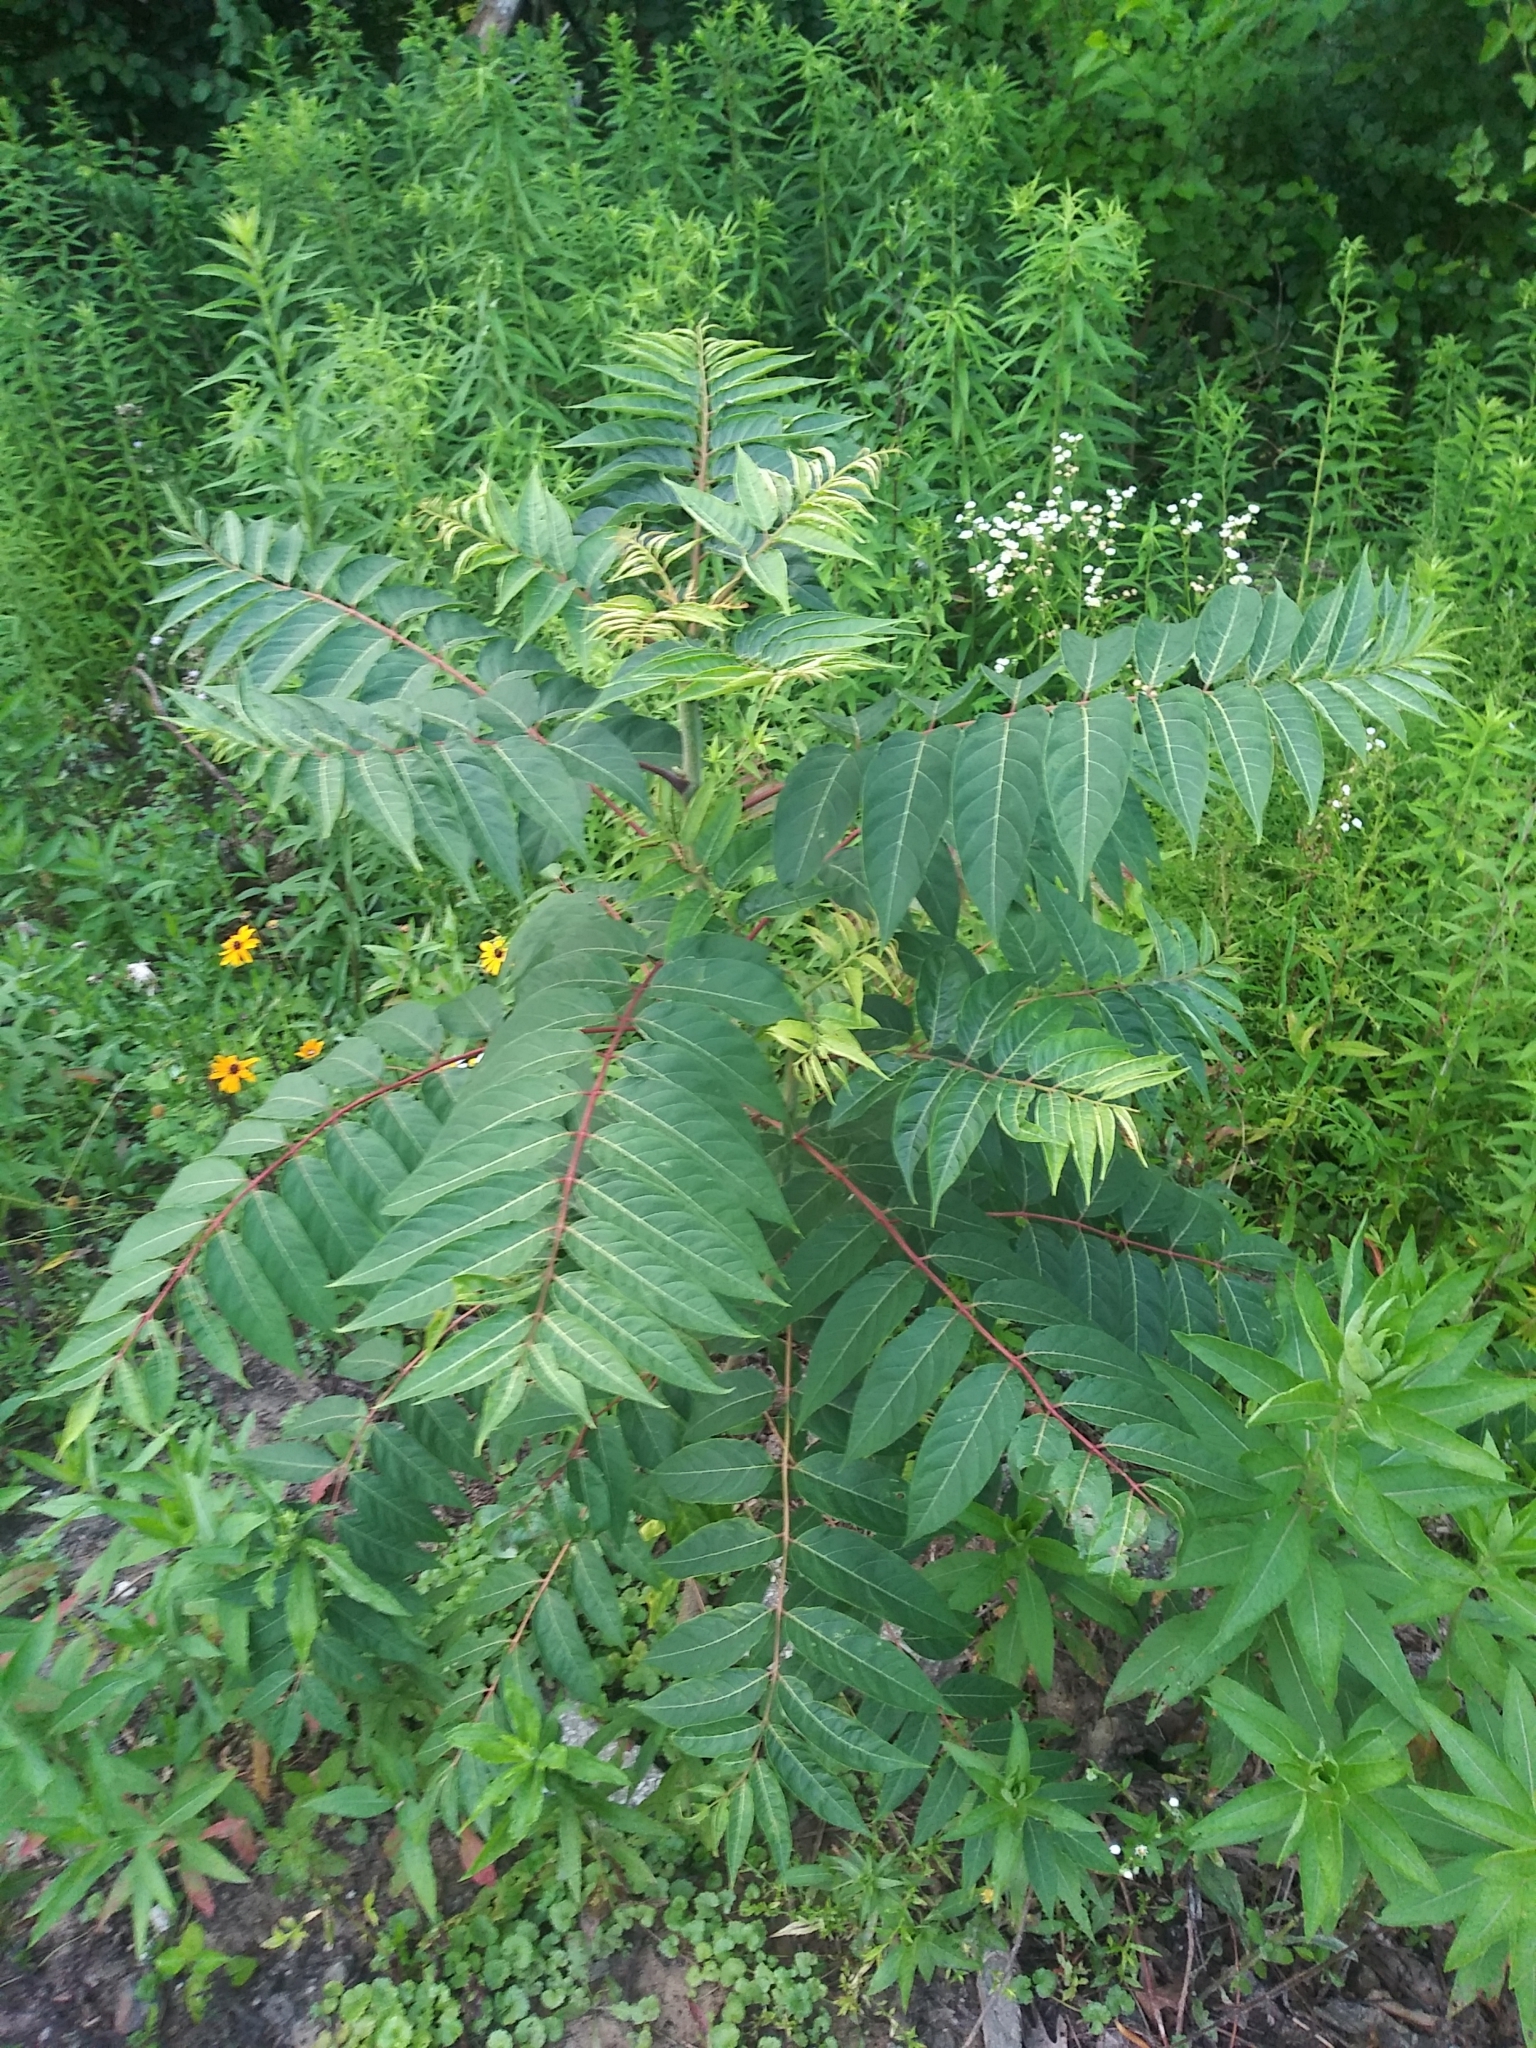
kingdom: Plantae
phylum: Tracheophyta
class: Magnoliopsida
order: Sapindales
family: Simaroubaceae
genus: Ailanthus
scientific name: Ailanthus altissima
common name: Tree-of-heaven
